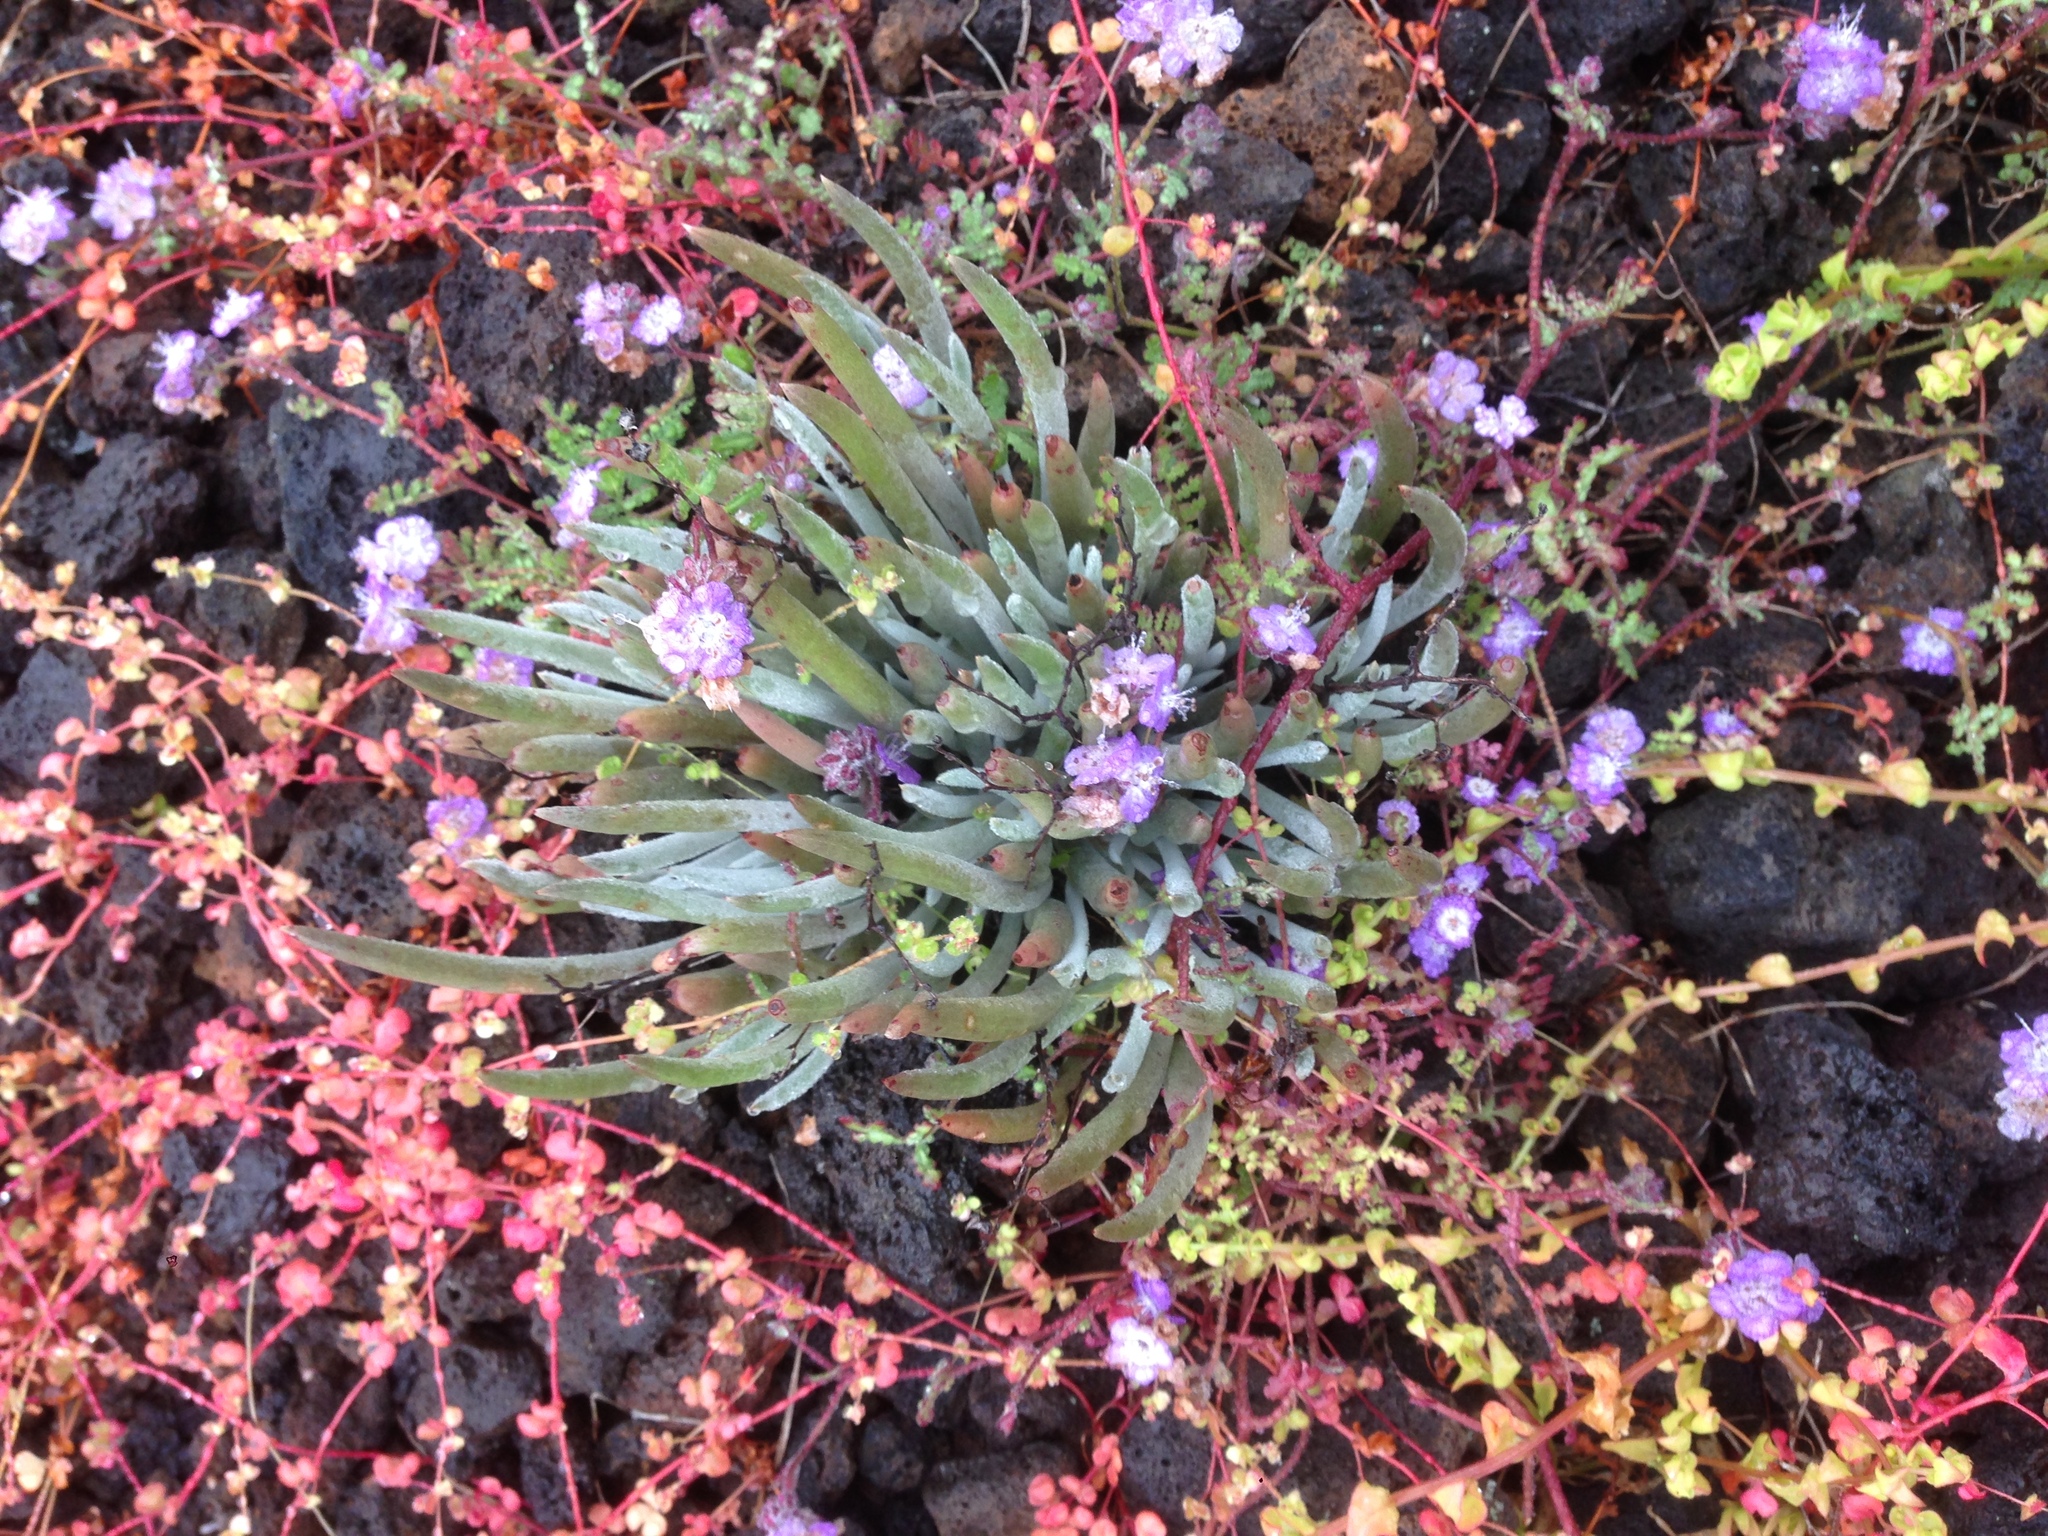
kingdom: Plantae
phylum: Tracheophyta
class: Magnoliopsida
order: Saxifragales
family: Crassulaceae
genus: Dudleya
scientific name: Dudleya attenuata
